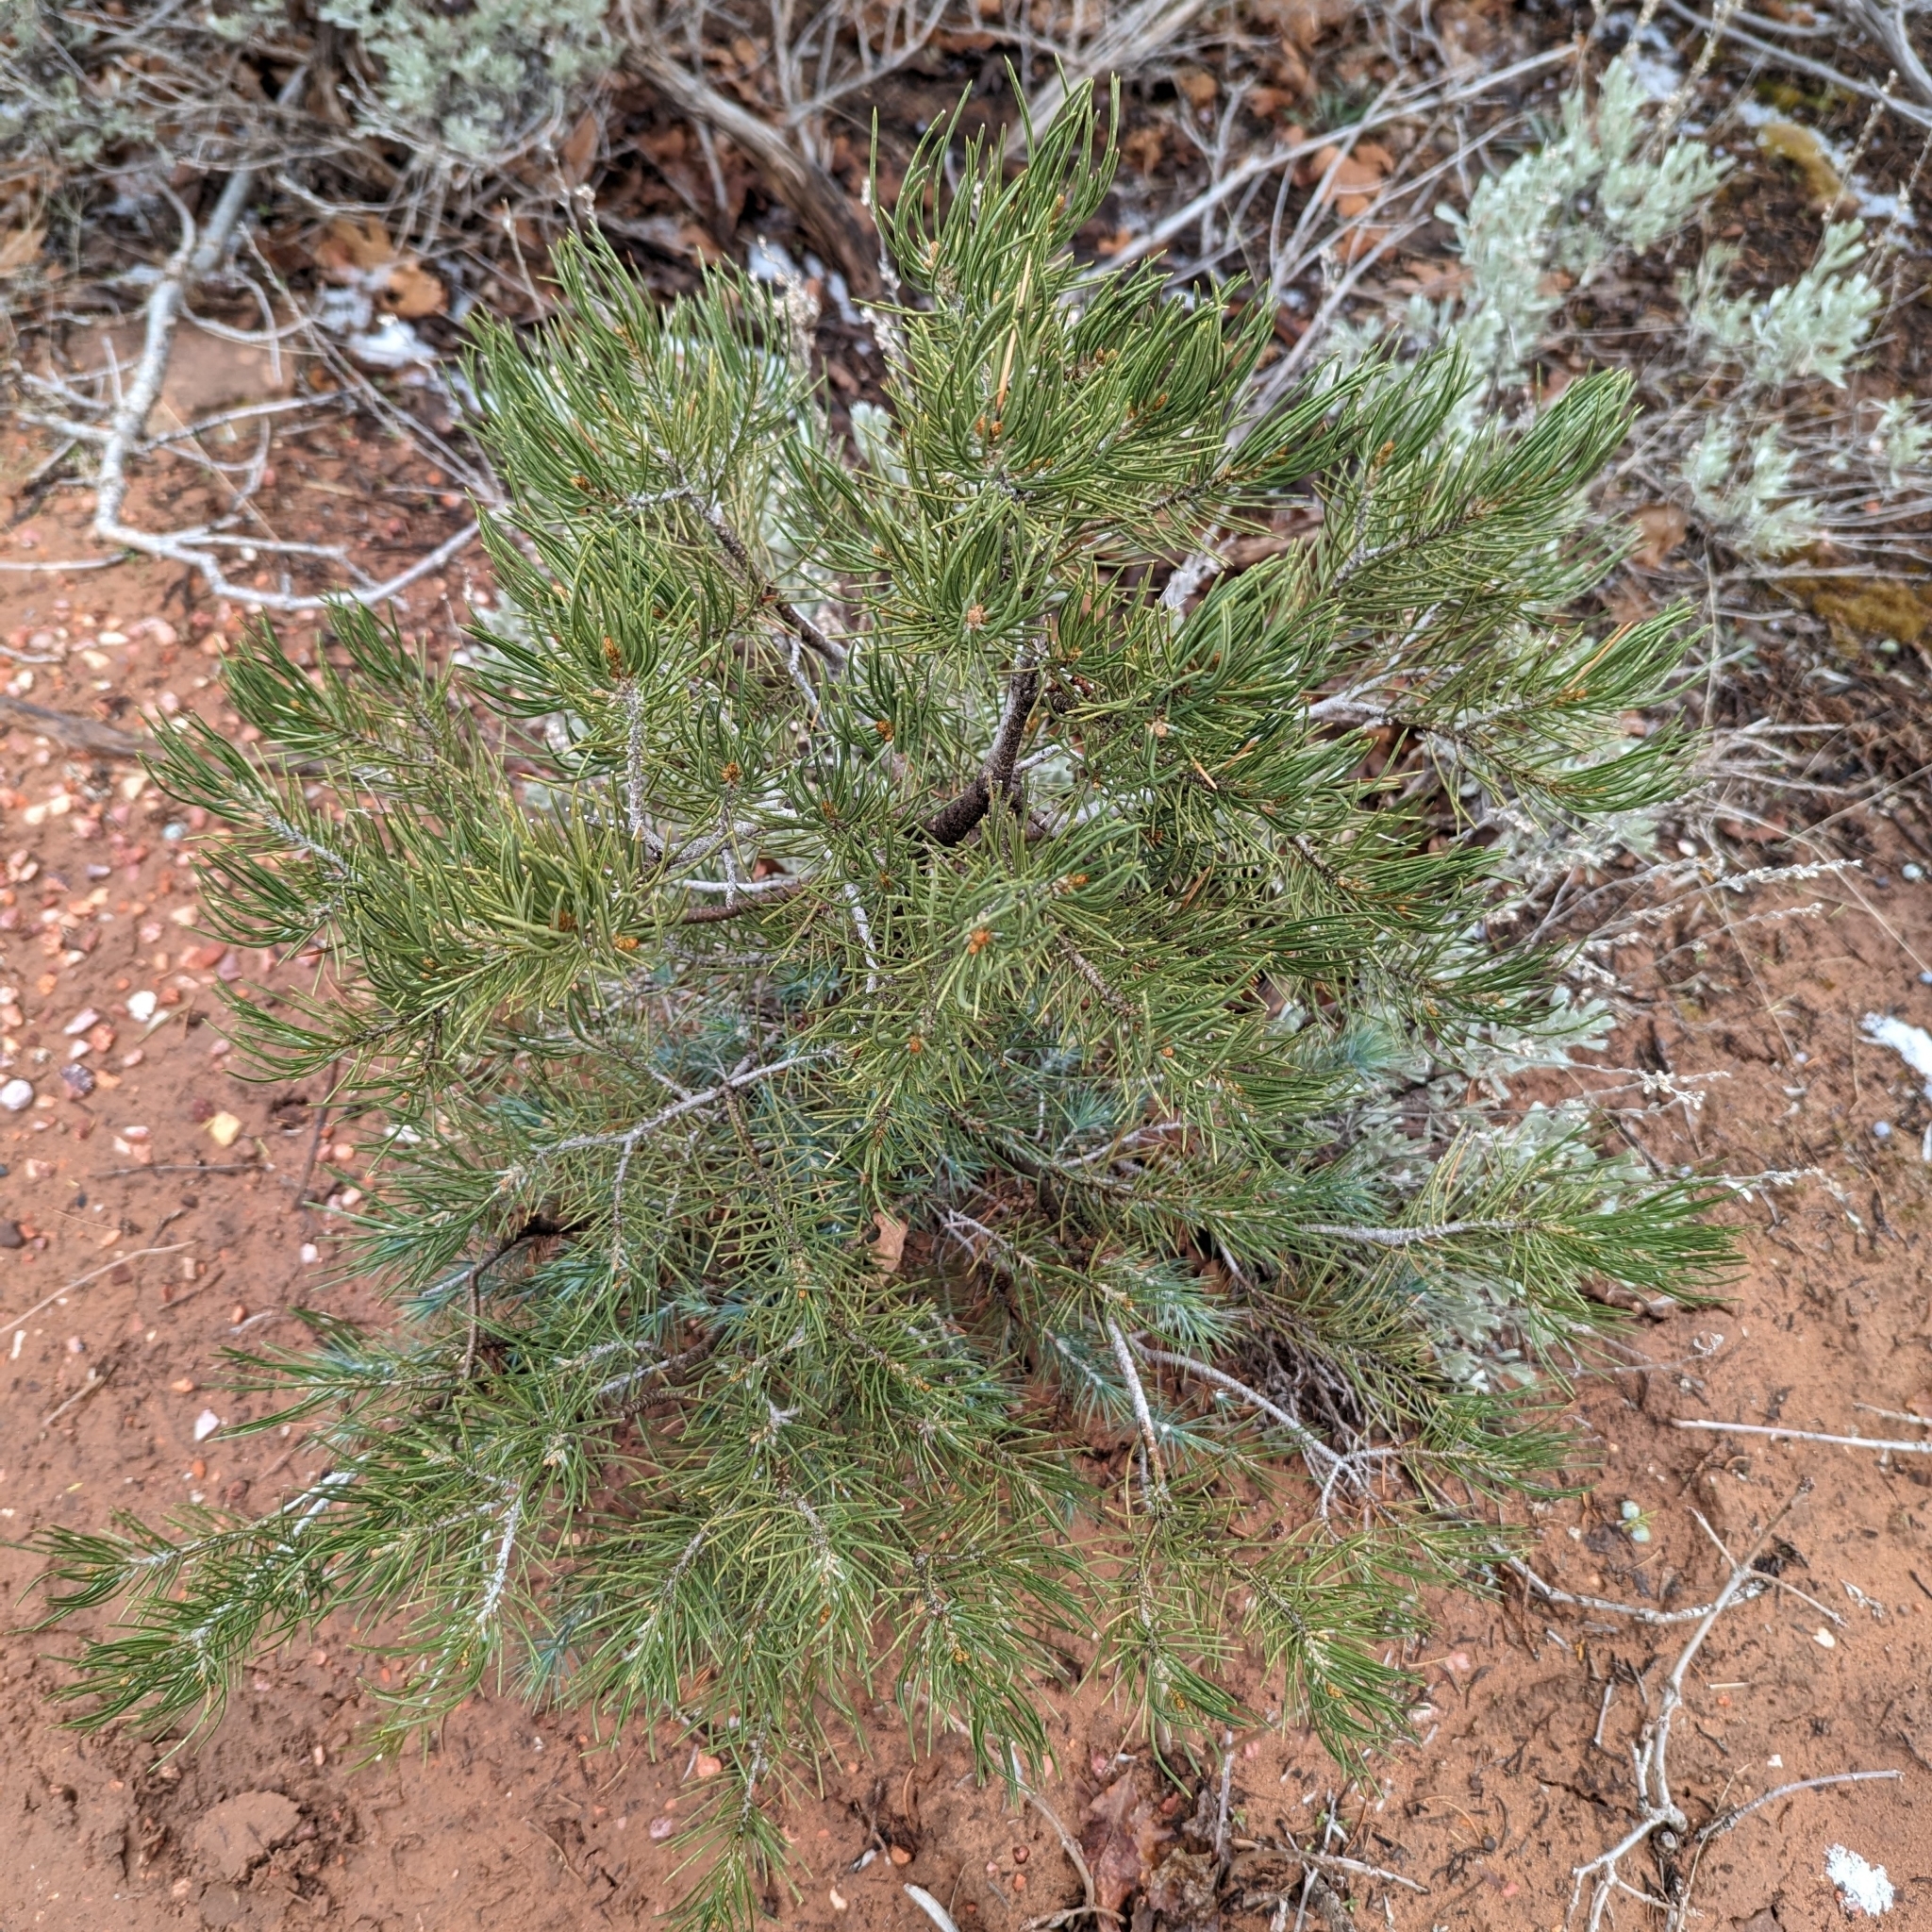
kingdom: Plantae
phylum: Tracheophyta
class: Pinopsida
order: Pinales
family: Pinaceae
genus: Pinus
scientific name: Pinus edulis
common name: Colorado pinyon
